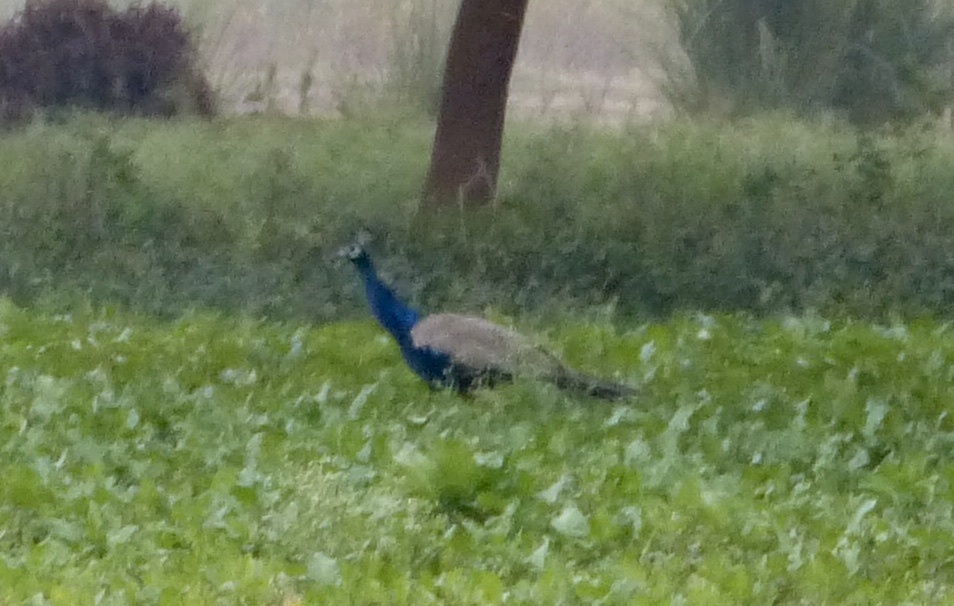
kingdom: Animalia
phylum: Chordata
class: Aves
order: Galliformes
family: Phasianidae
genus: Pavo
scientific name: Pavo cristatus
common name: Indian peafowl
